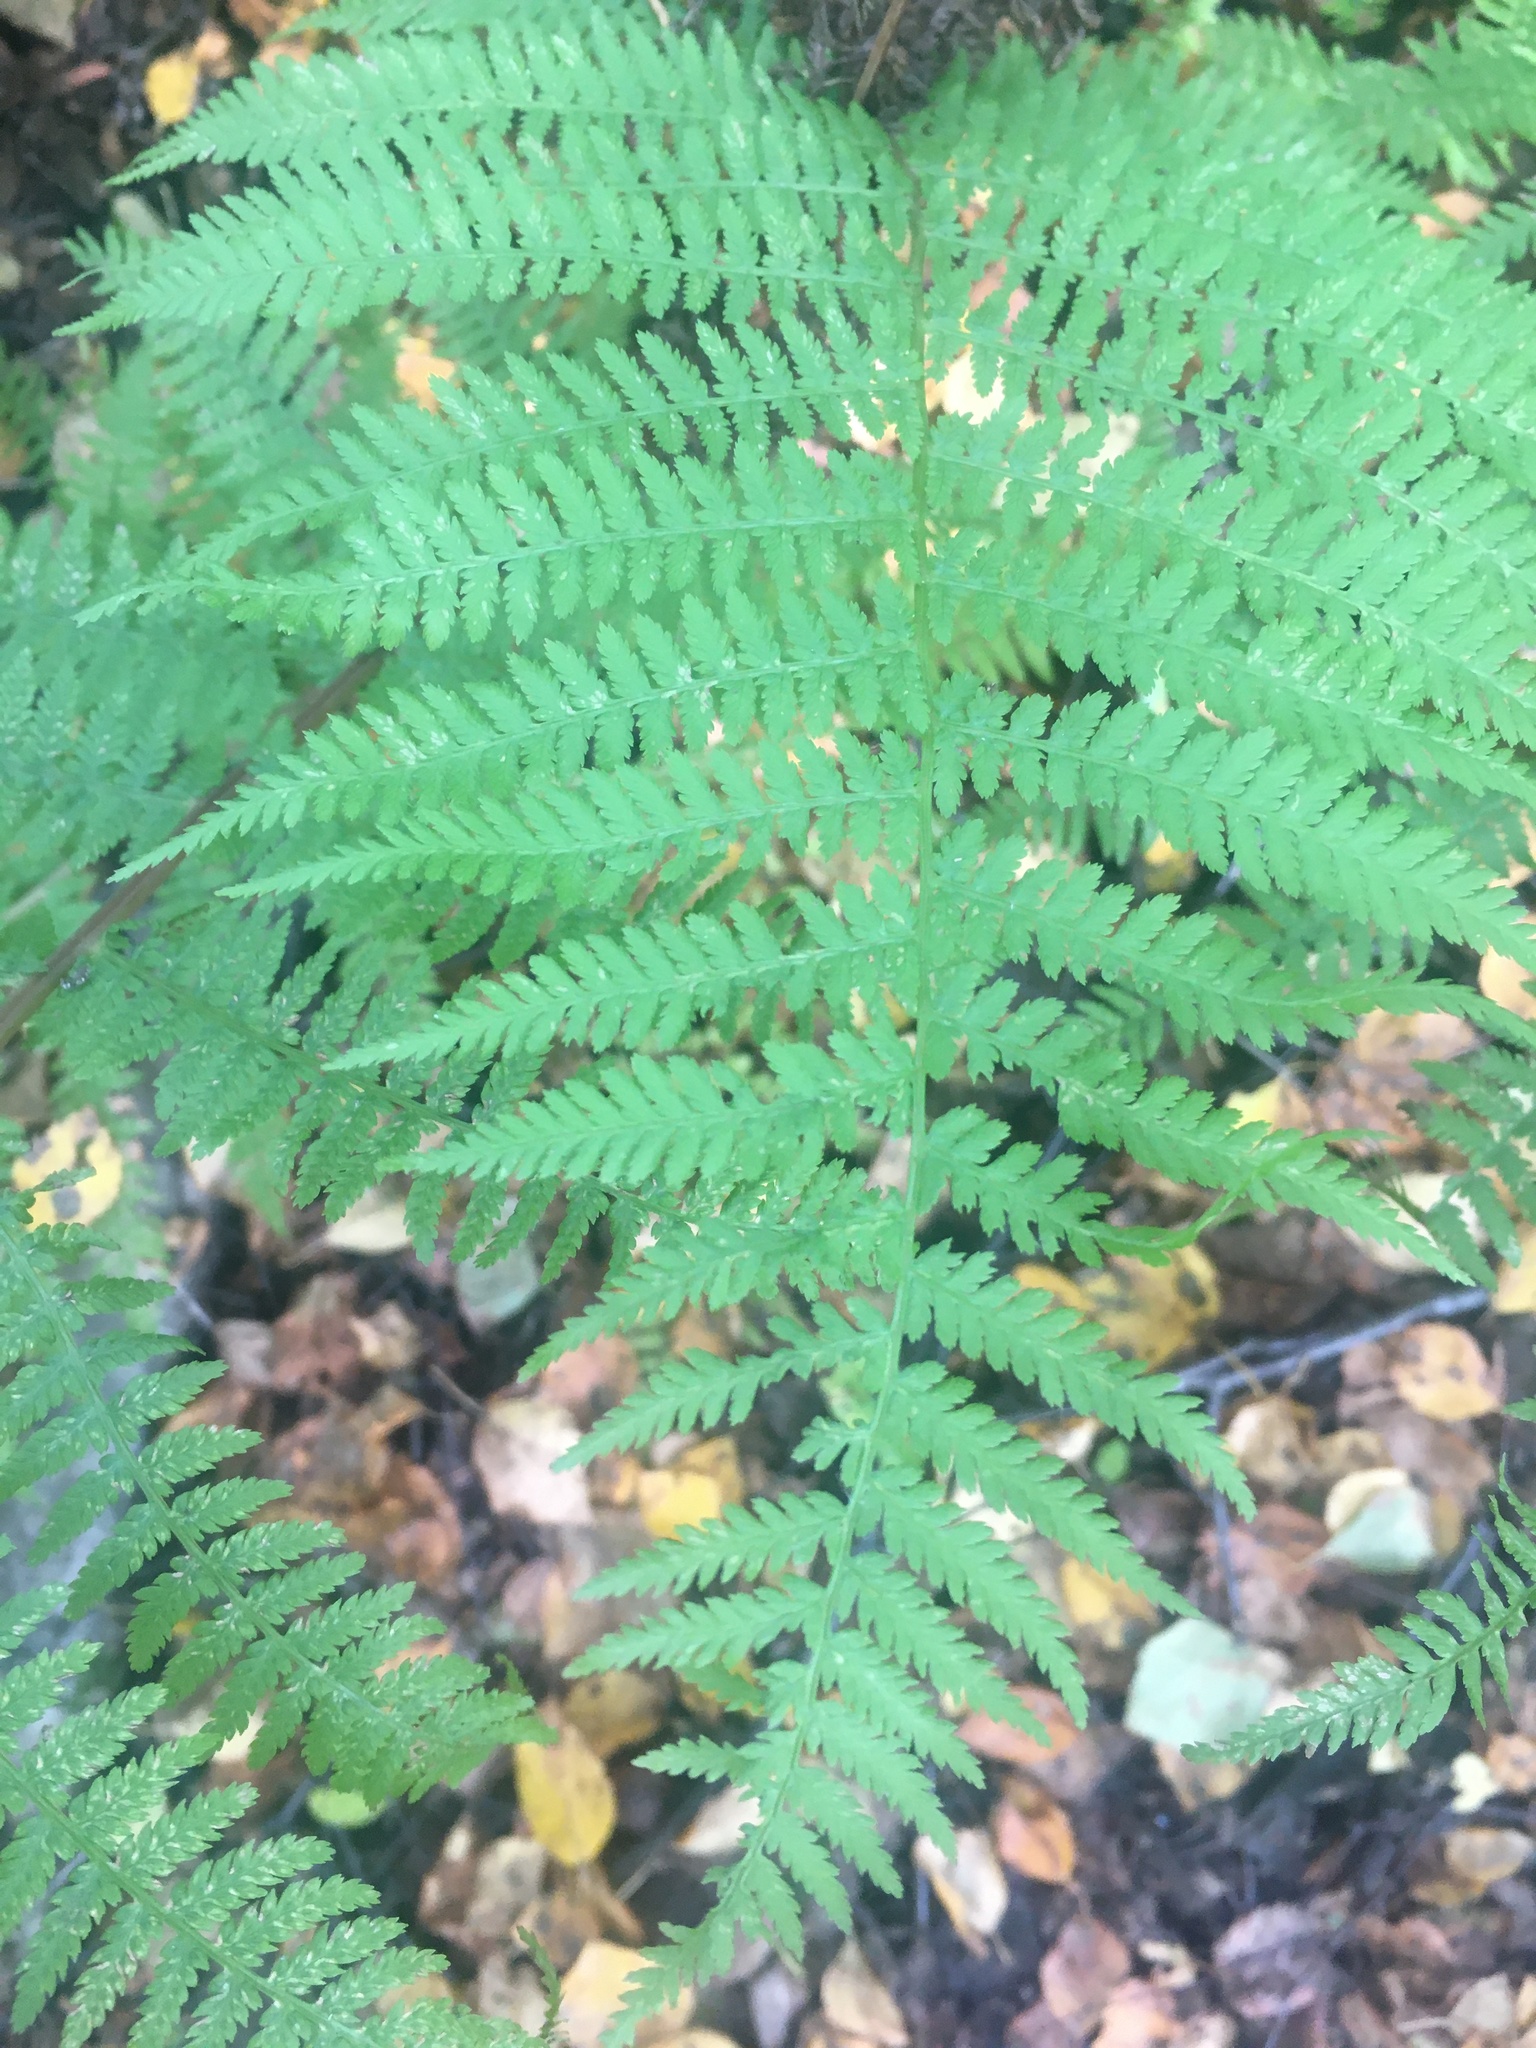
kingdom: Plantae
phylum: Tracheophyta
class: Polypodiopsida
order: Polypodiales
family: Athyriaceae
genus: Athyrium
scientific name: Athyrium filix-femina
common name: Lady fern
